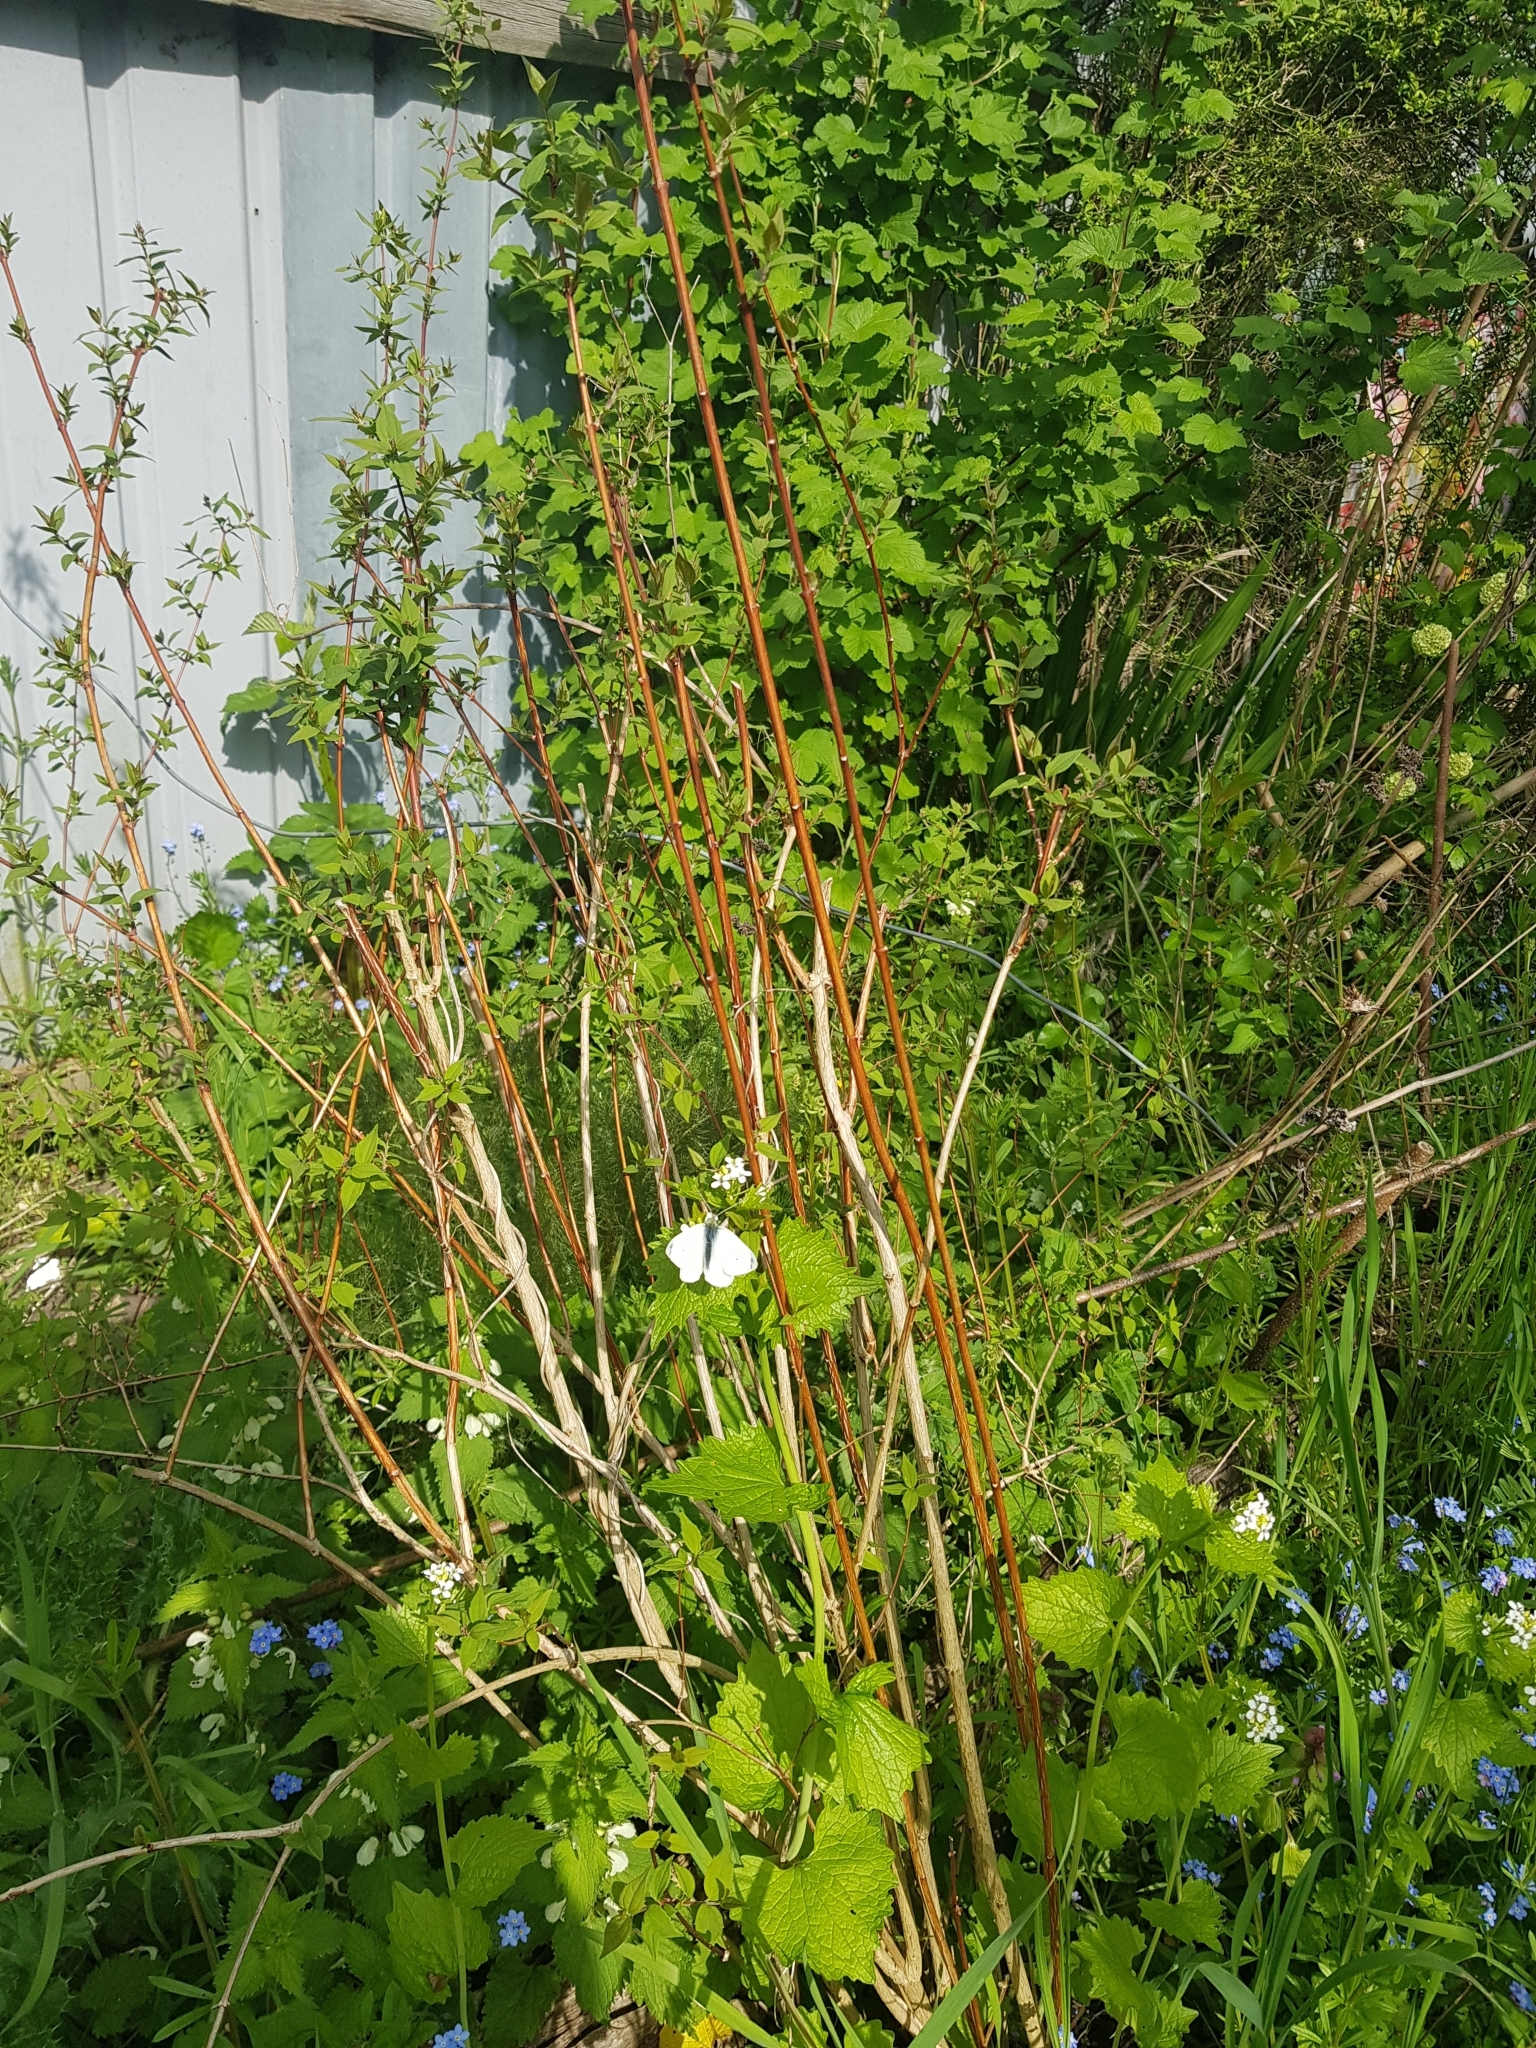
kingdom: Animalia
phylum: Arthropoda
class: Insecta
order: Lepidoptera
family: Pieridae
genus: Pieris
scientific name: Pieris rapae
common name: Small white
